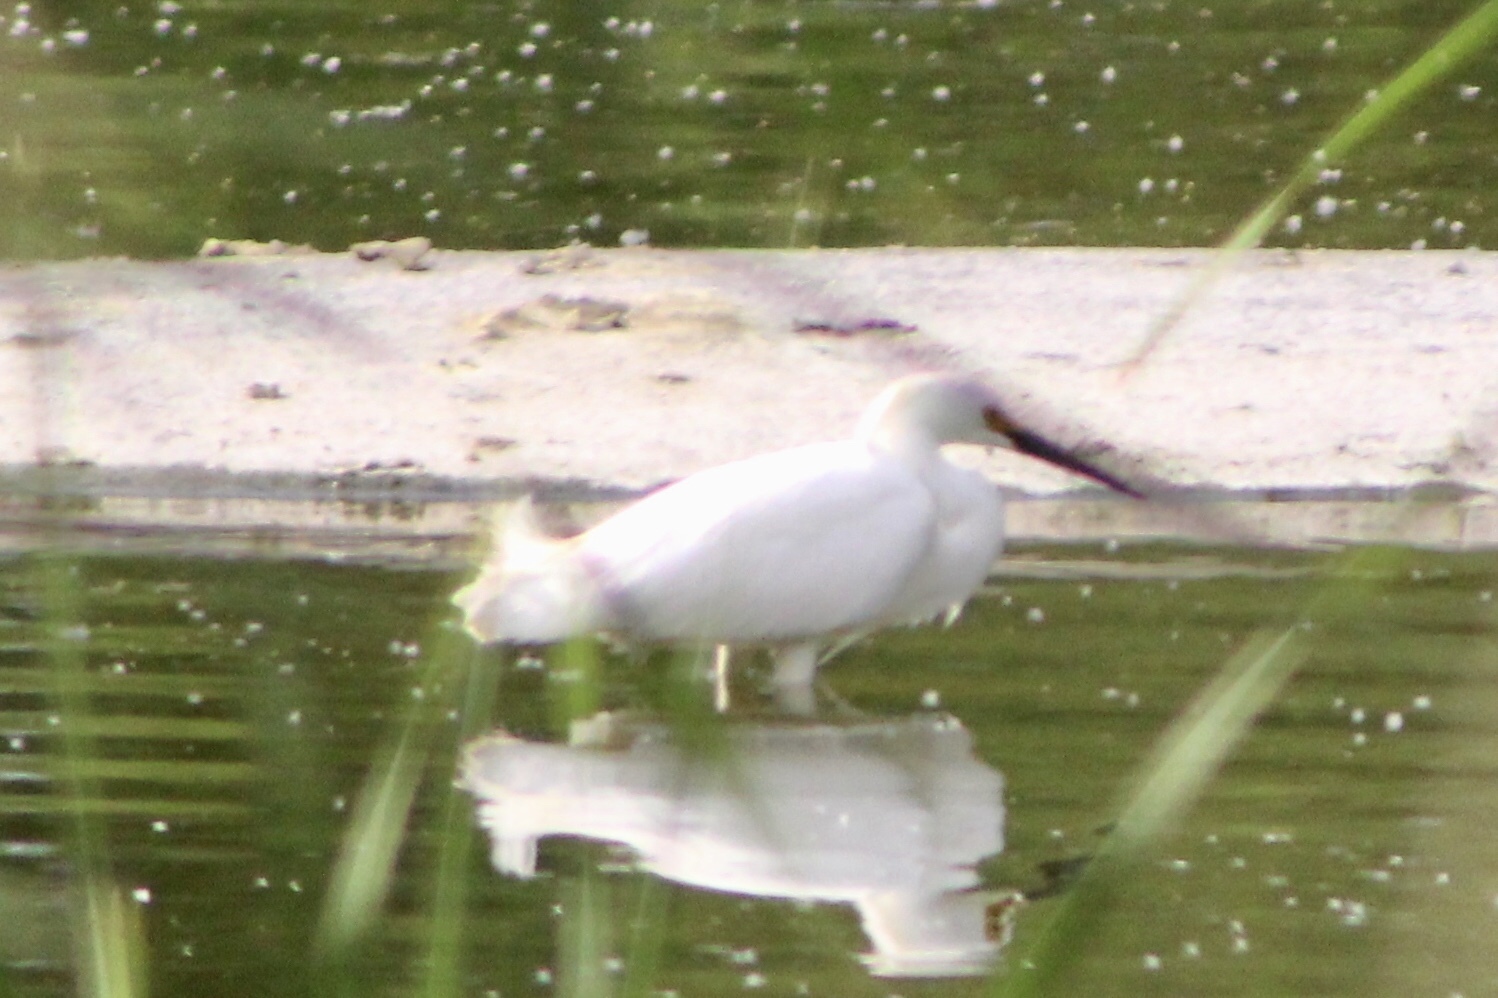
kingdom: Animalia
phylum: Chordata
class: Aves
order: Pelecaniformes
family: Ardeidae
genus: Egretta
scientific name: Egretta thula
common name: Snowy egret
